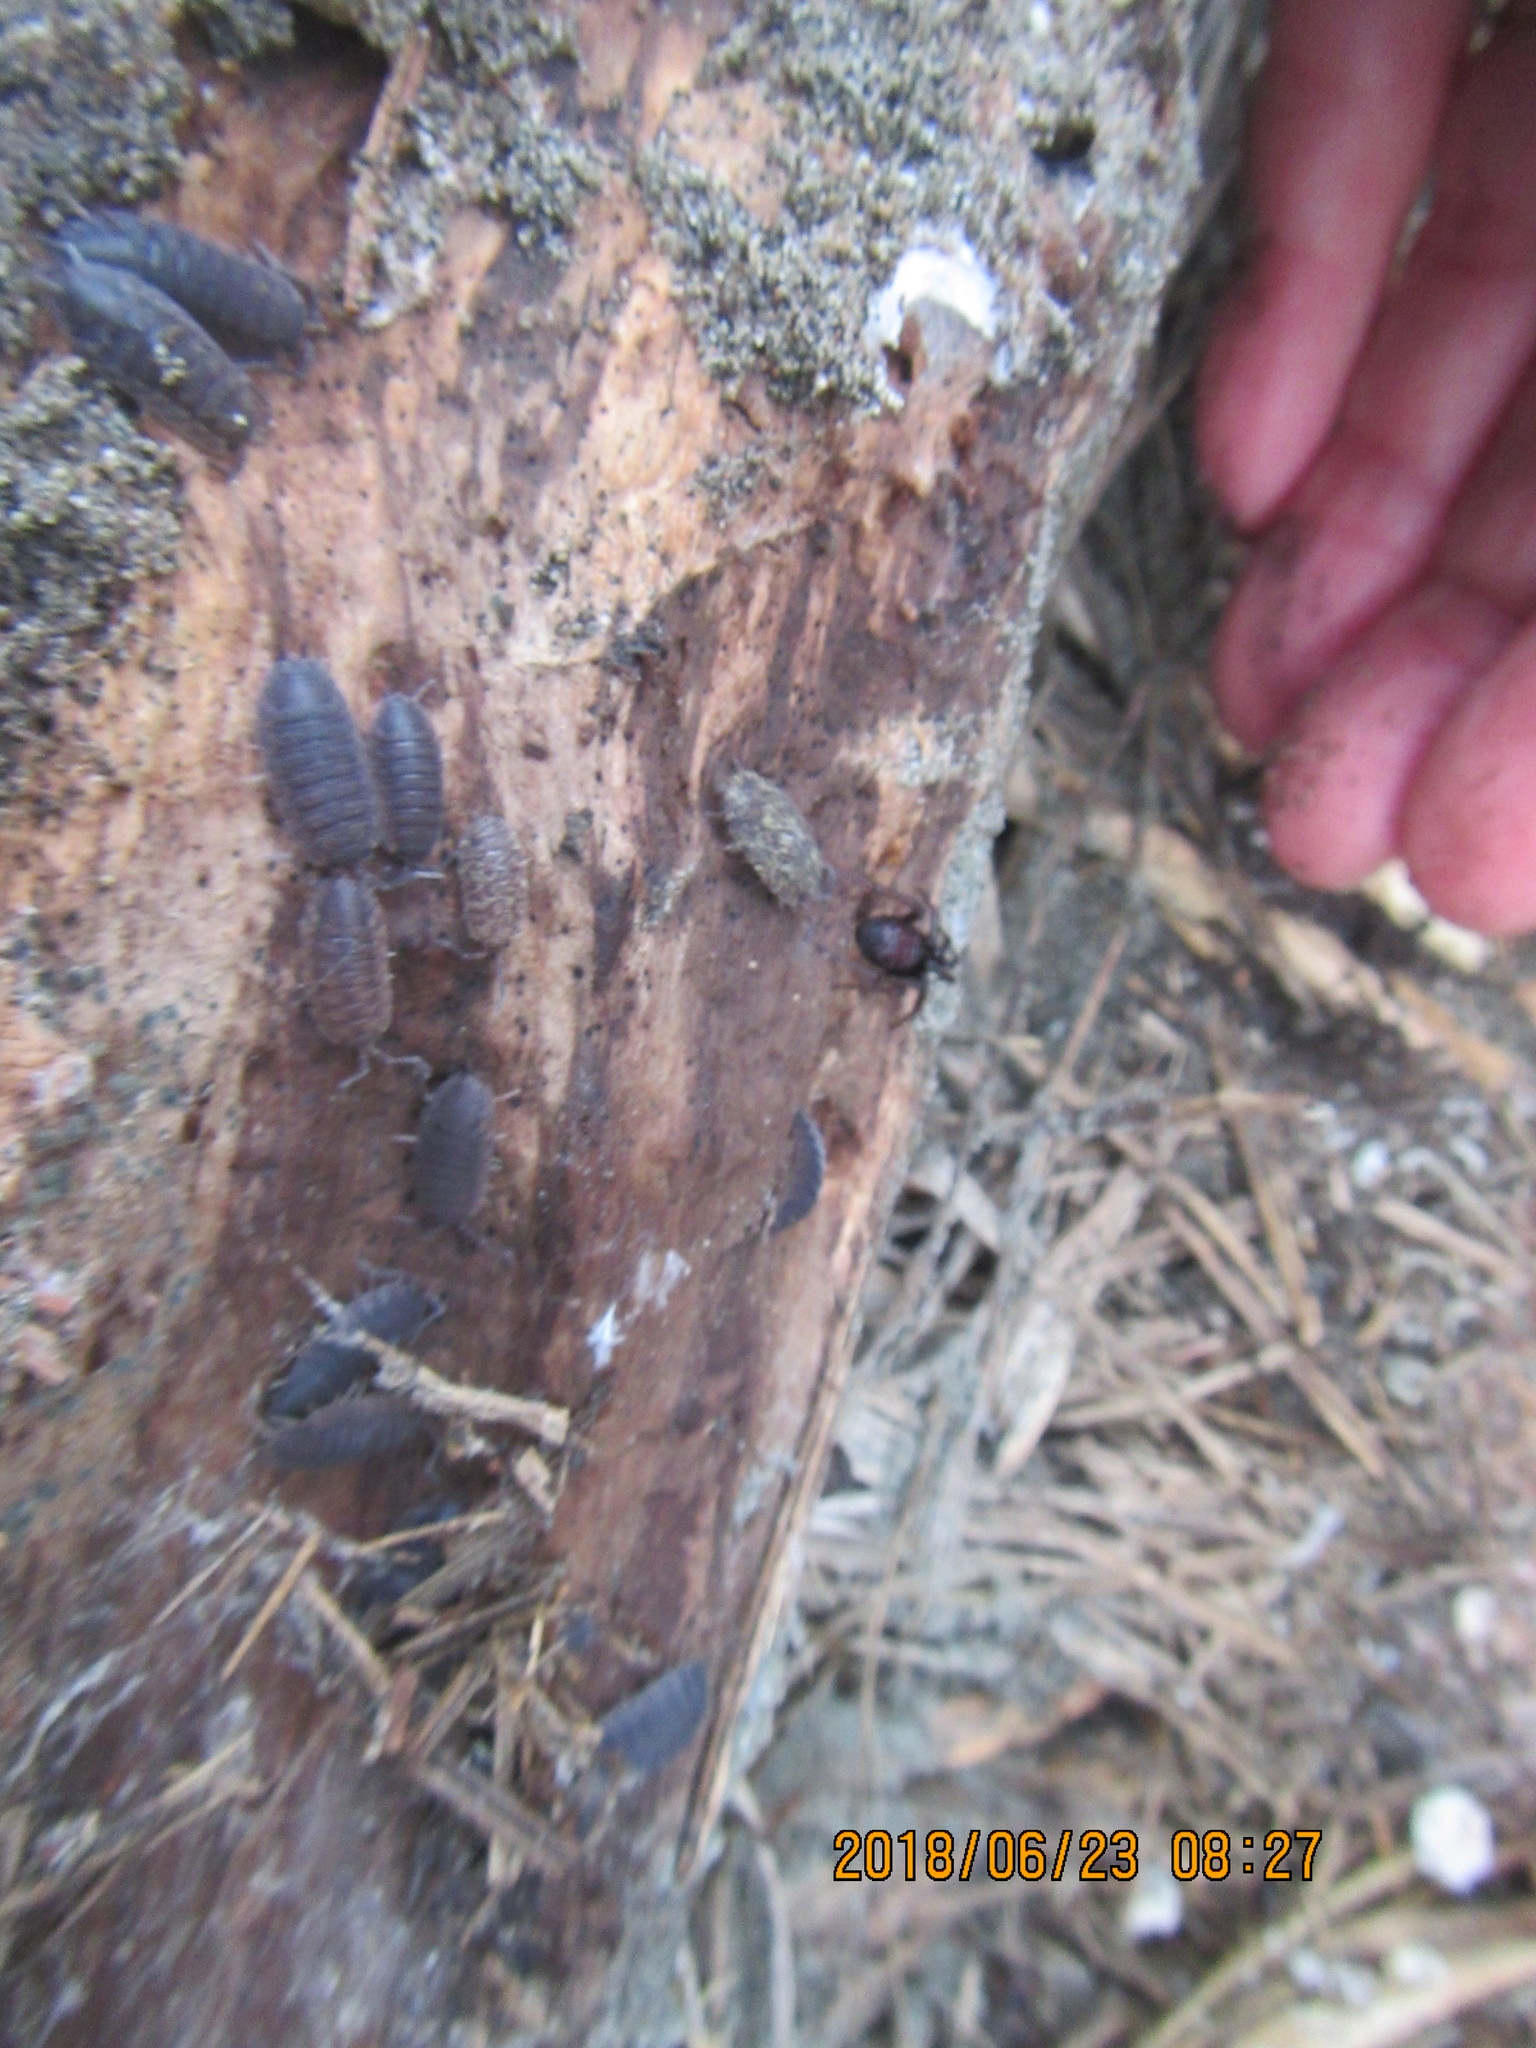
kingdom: Animalia
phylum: Arthropoda
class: Malacostraca
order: Isopoda
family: Porcellionidae
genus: Porcellio
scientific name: Porcellio scaber
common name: Common rough woodlouse
